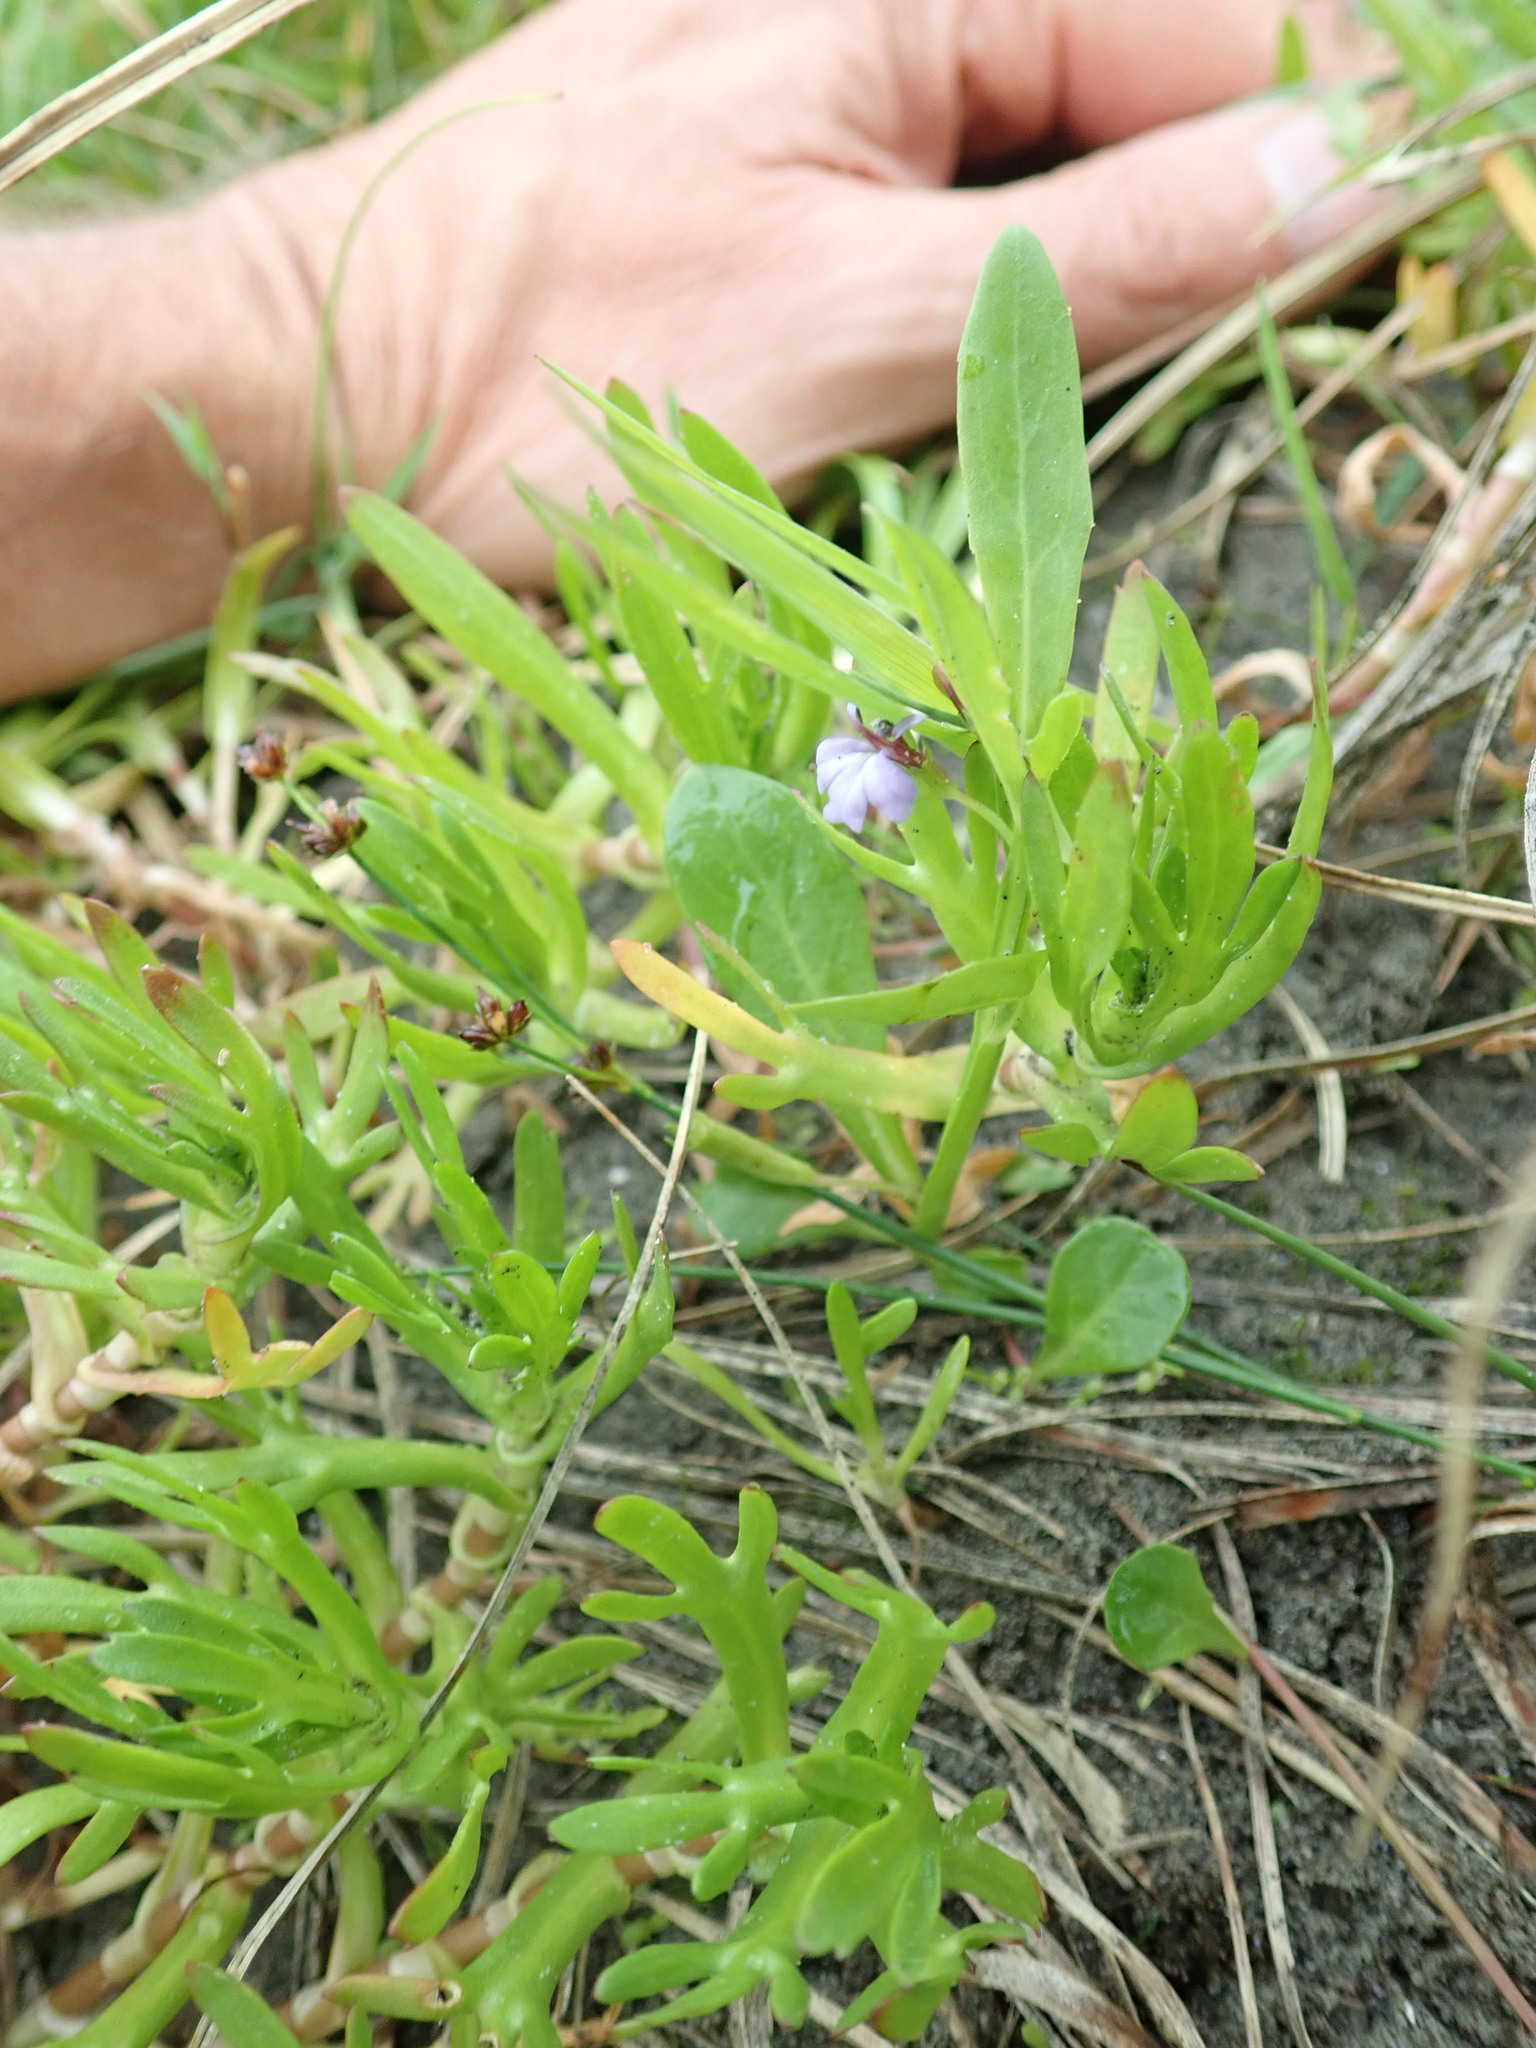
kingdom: Plantae
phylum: Tracheophyta
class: Magnoliopsida
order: Asterales
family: Campanulaceae
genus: Lobelia
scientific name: Lobelia anceps
